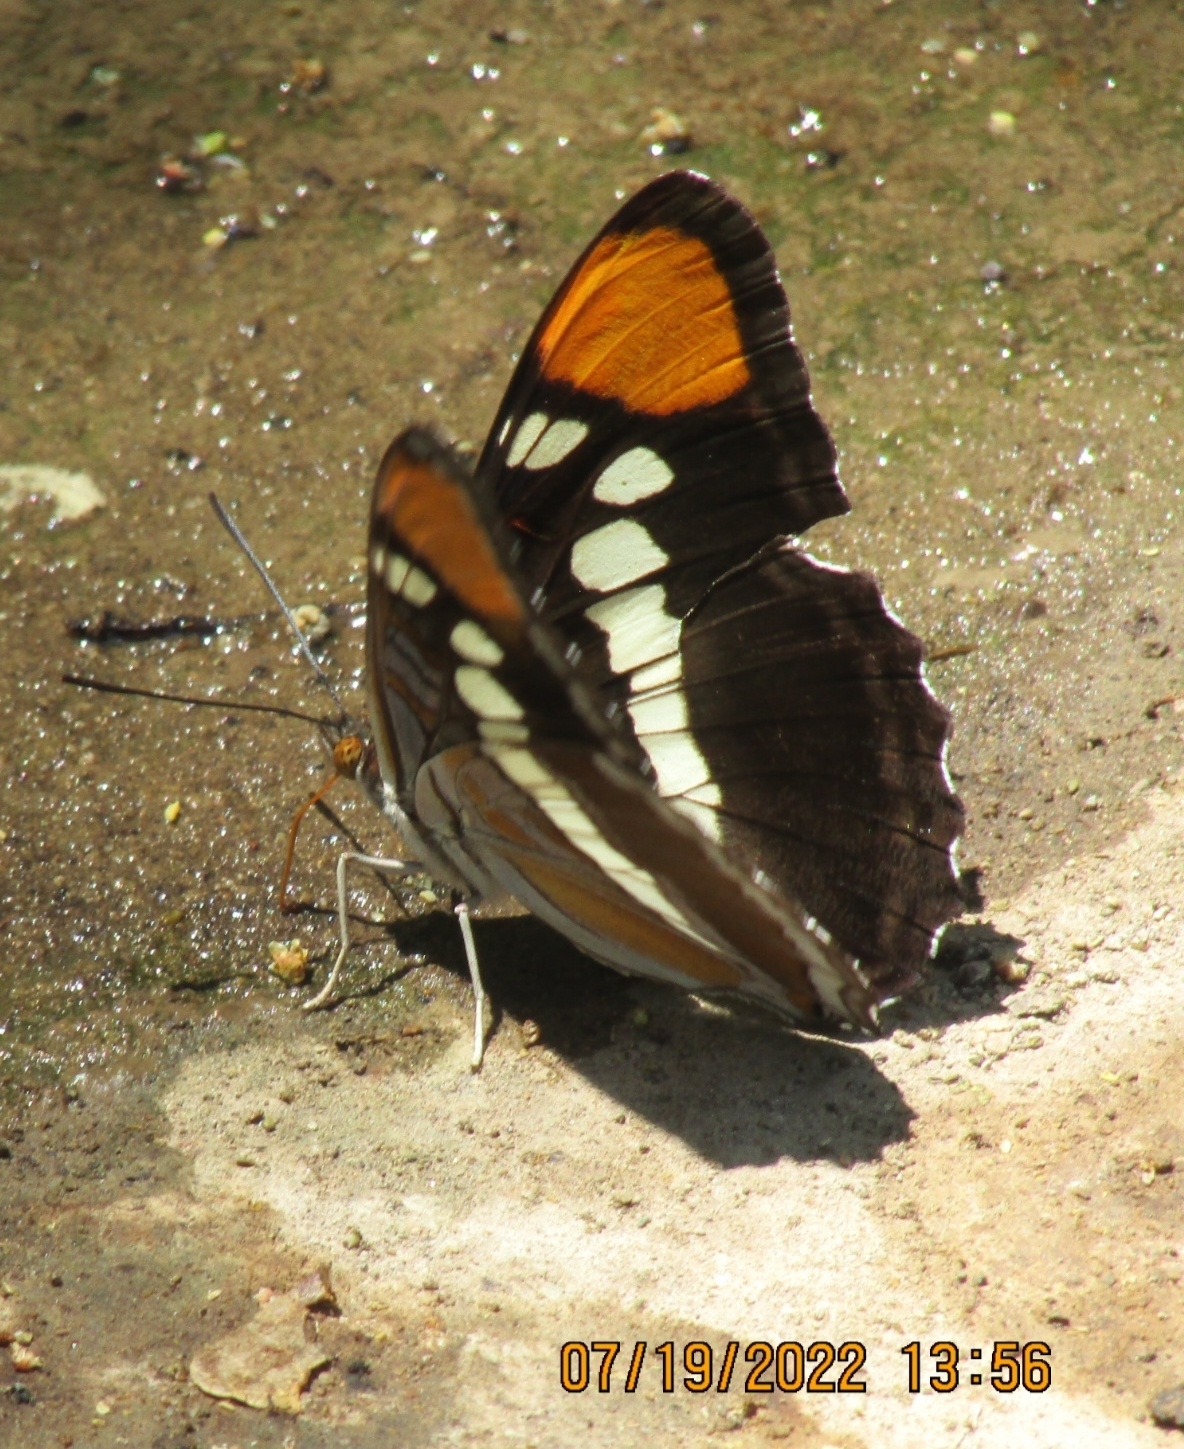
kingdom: Animalia
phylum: Arthropoda
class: Insecta
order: Lepidoptera
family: Nymphalidae
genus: Limenitis
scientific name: Limenitis bredowii
